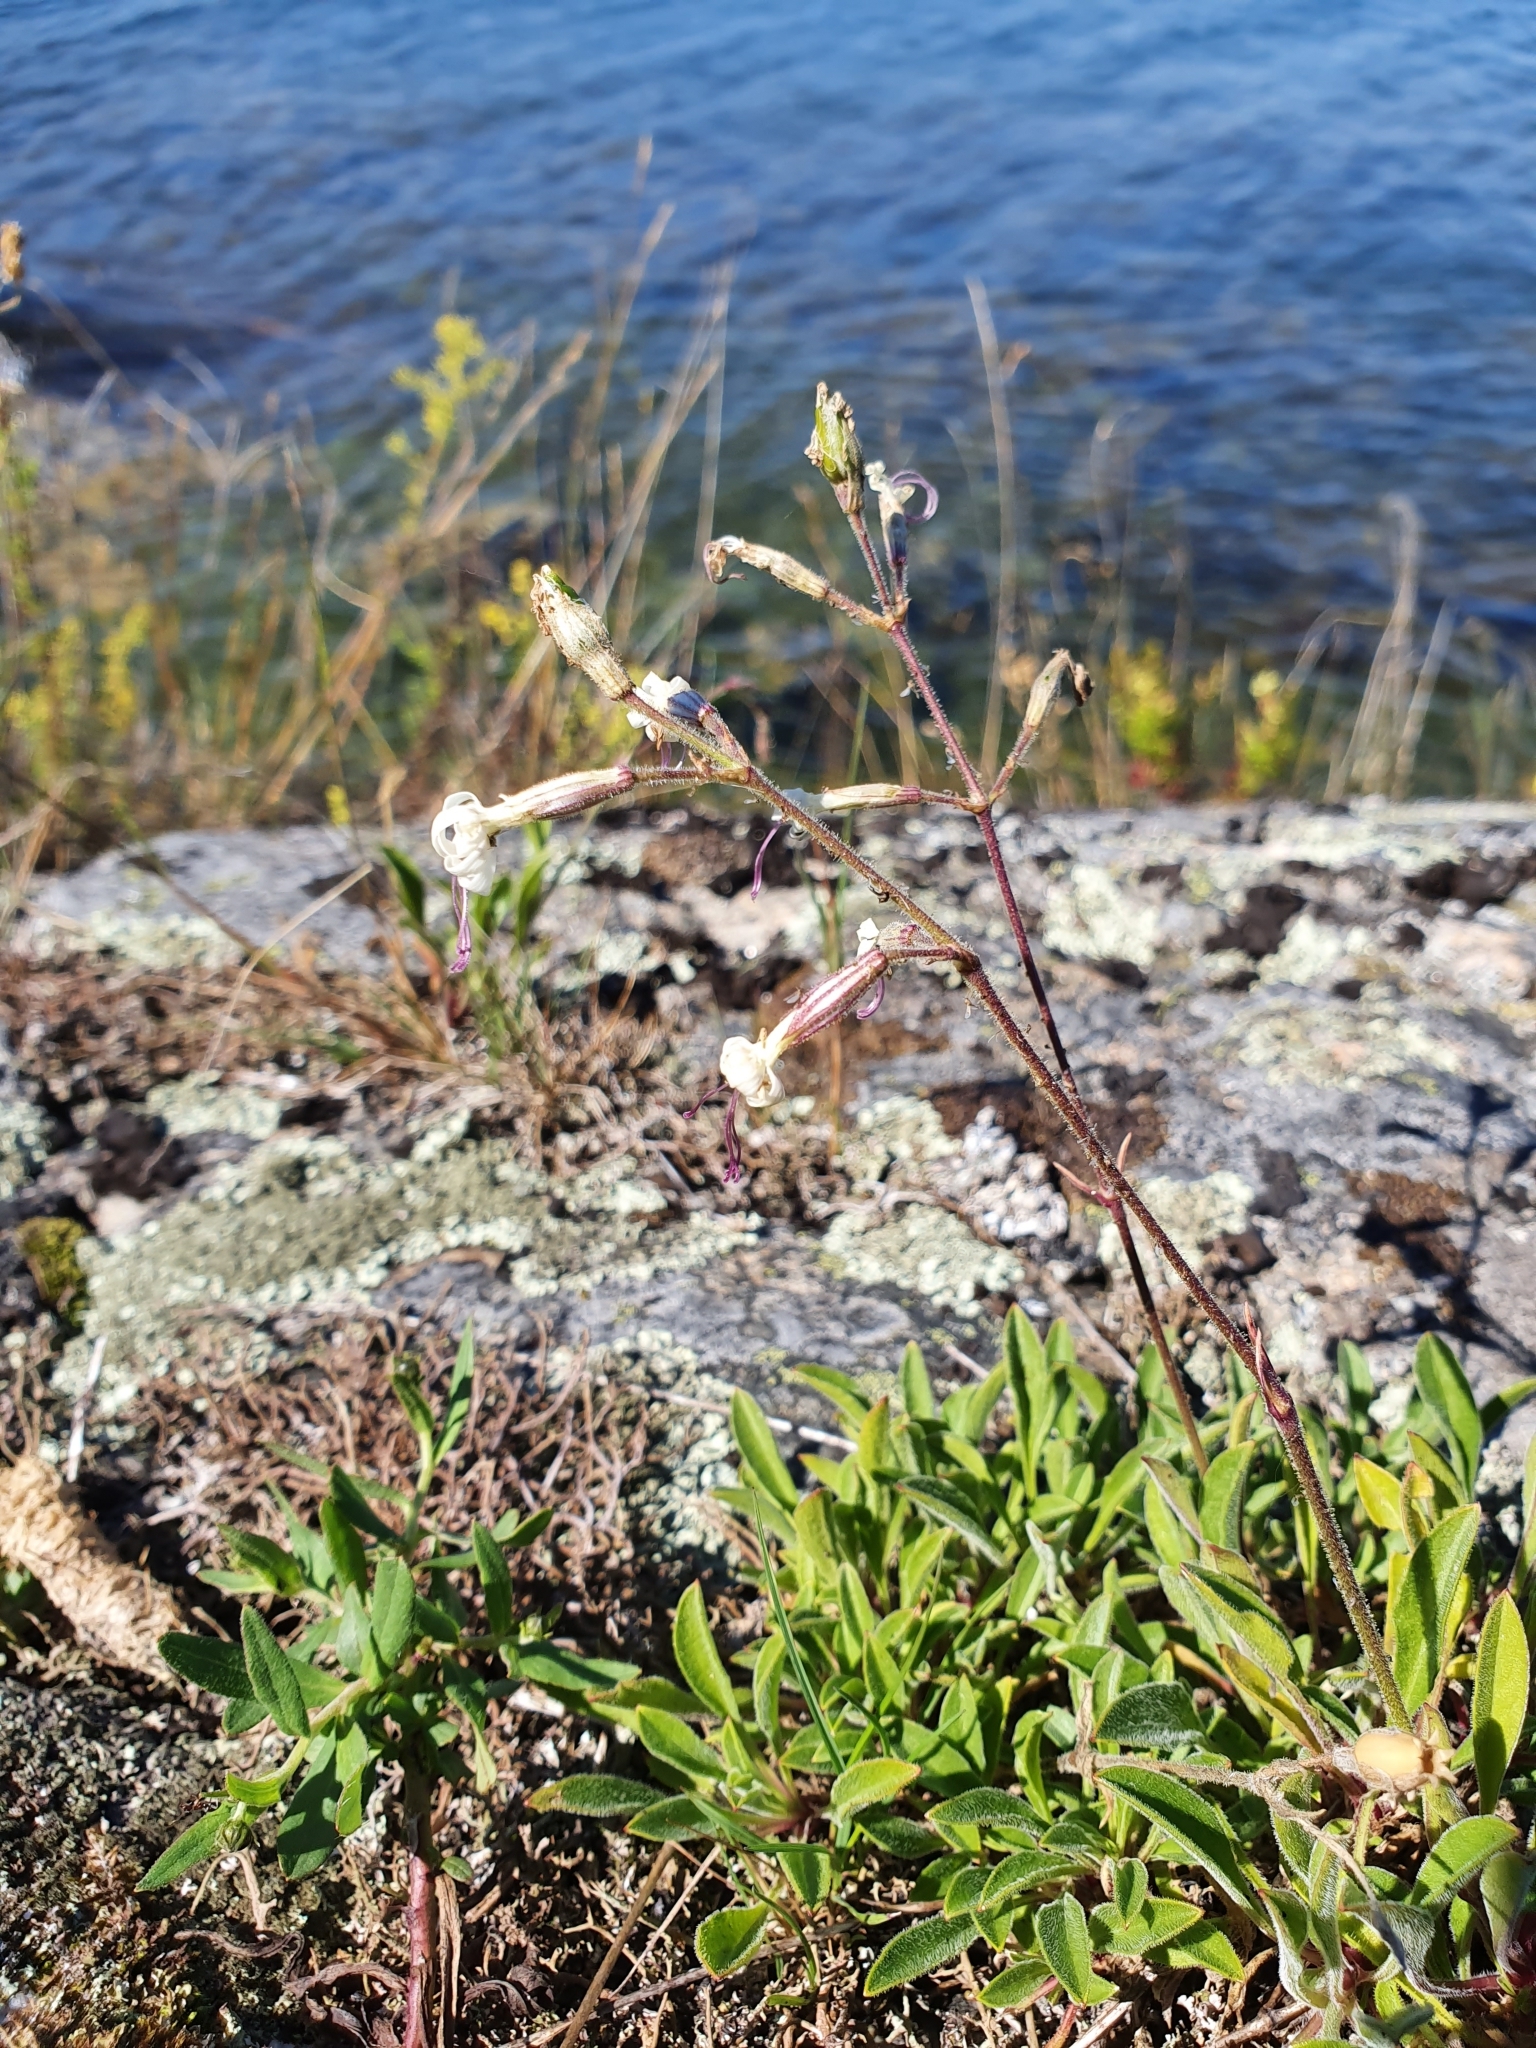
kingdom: Plantae
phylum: Tracheophyta
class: Magnoliopsida
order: Caryophyllales
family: Caryophyllaceae
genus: Silene
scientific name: Silene nutans
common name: Nottingham catchfly
